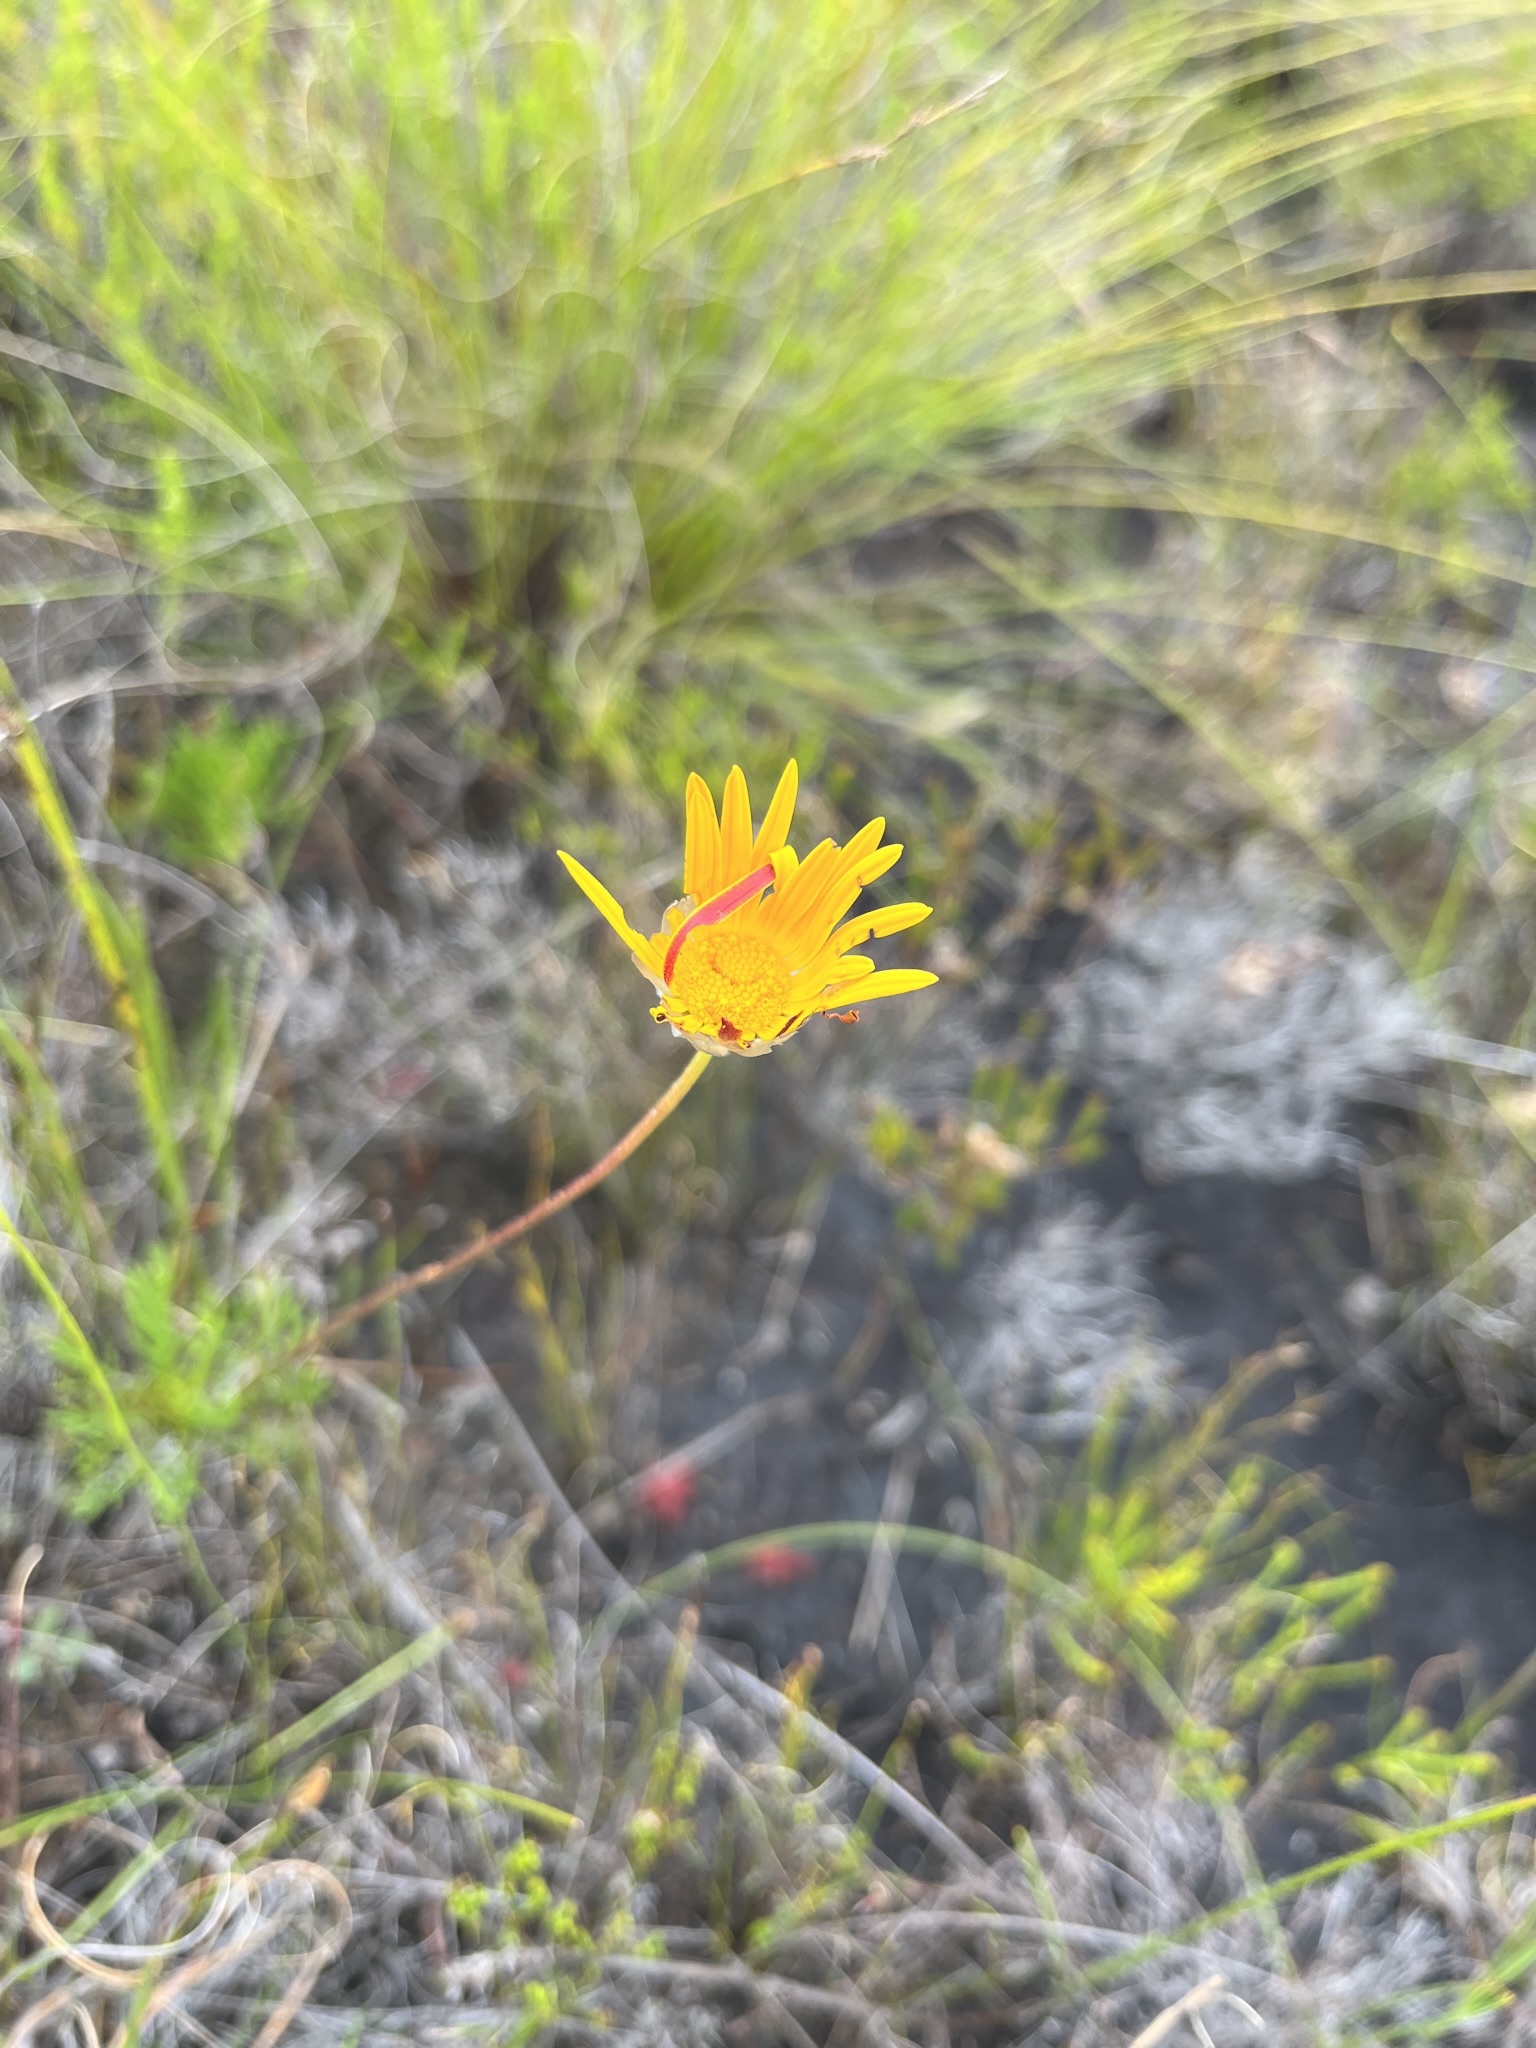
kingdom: Plantae
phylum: Tracheophyta
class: Magnoliopsida
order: Asterales
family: Asteraceae
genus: Ursinia
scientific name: Ursinia nudicaulis
